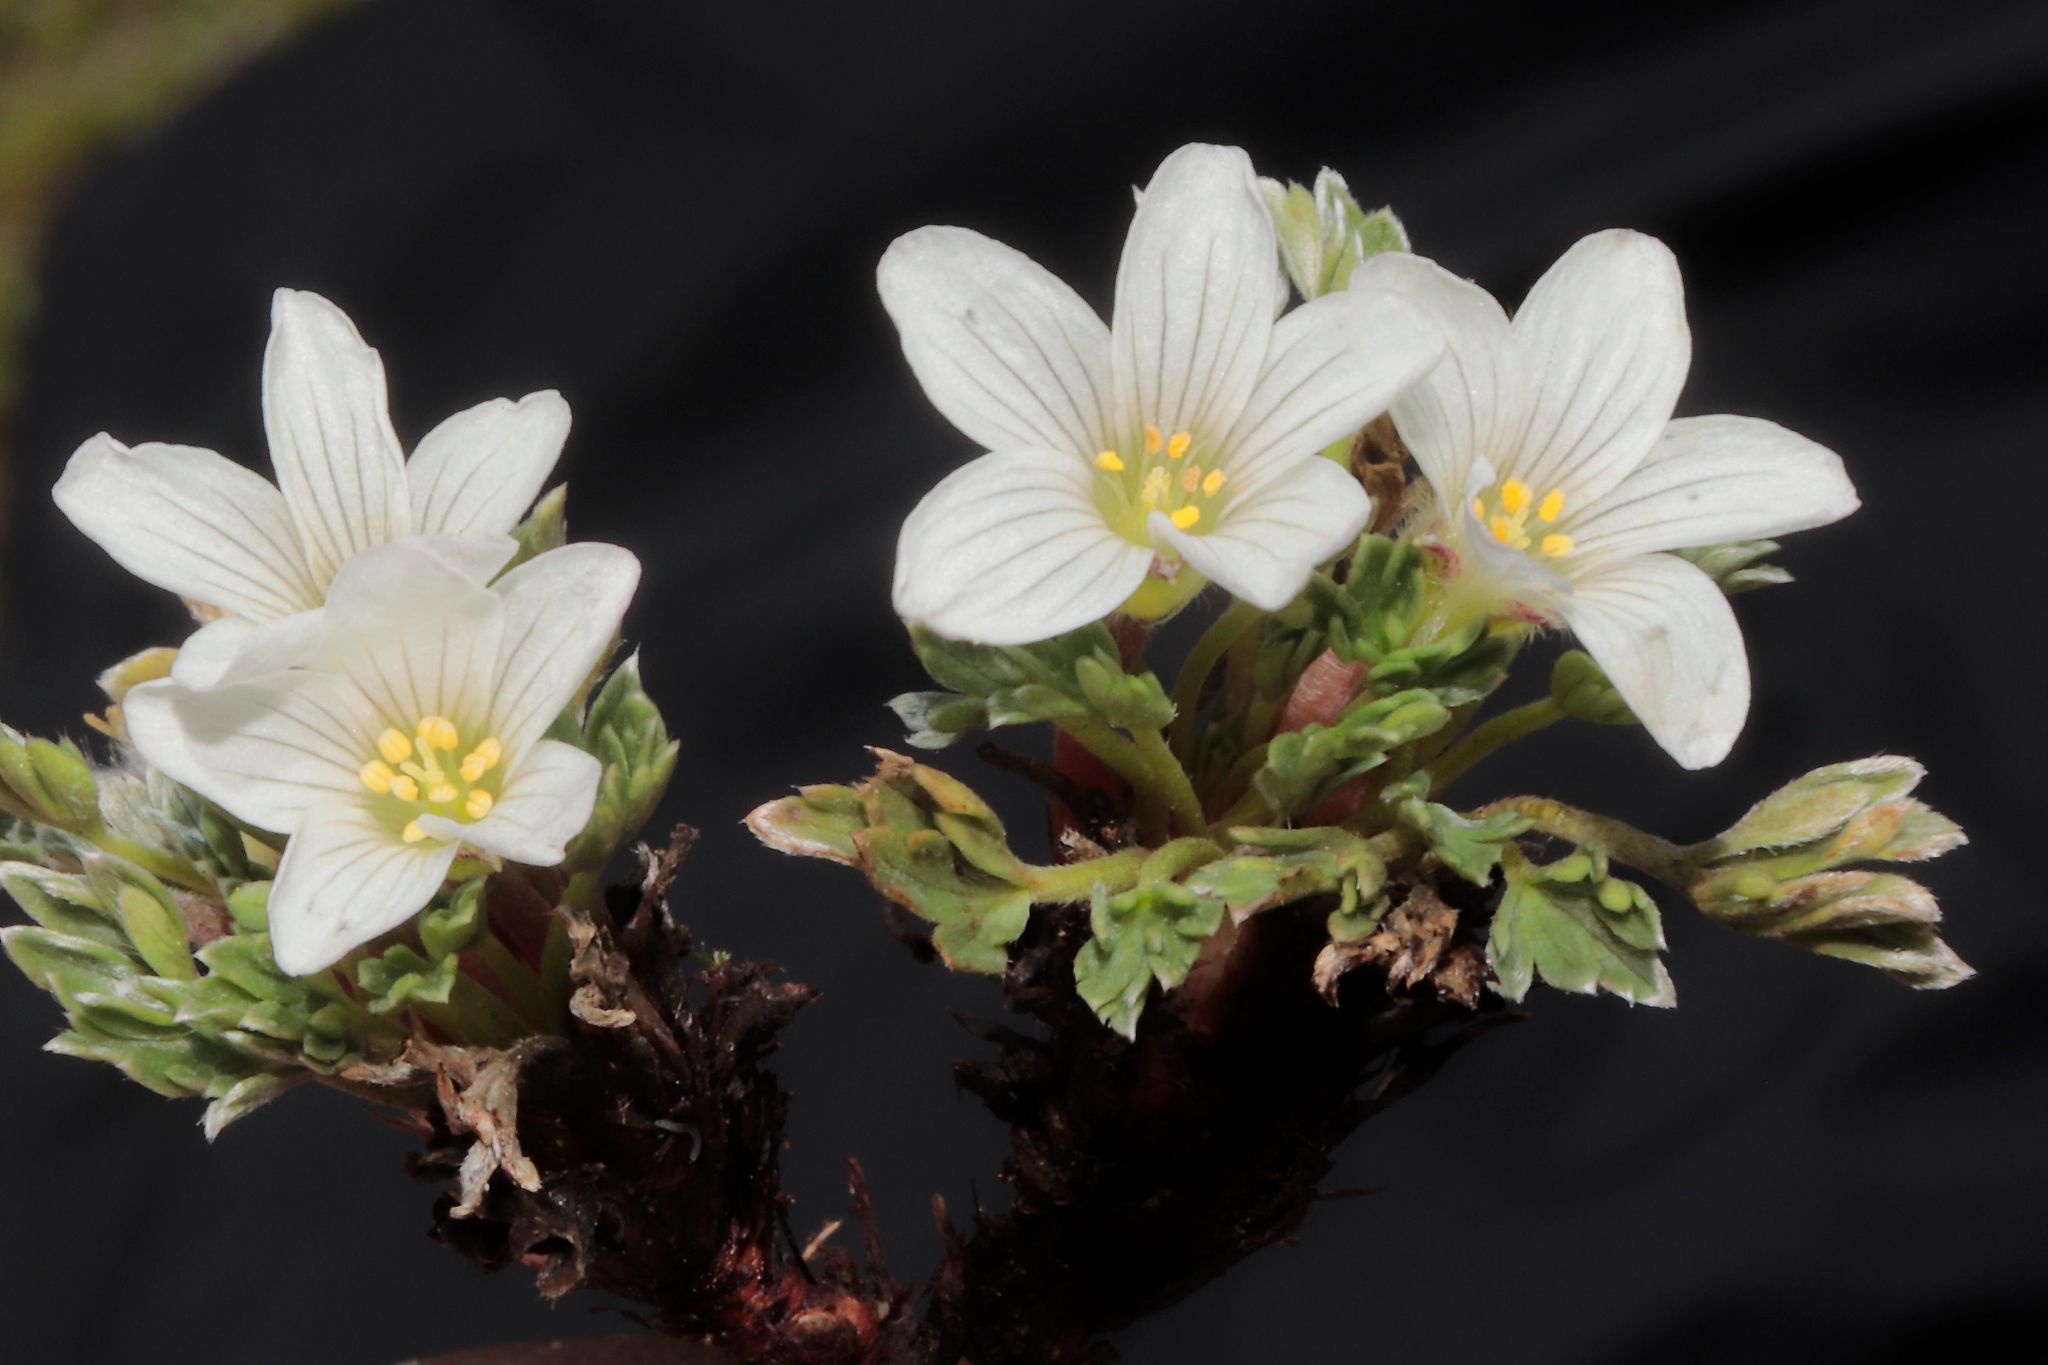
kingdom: Plantae
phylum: Tracheophyta
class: Magnoliopsida
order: Geraniales
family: Geraniaceae
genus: Geranium
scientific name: Geranium ruizii
